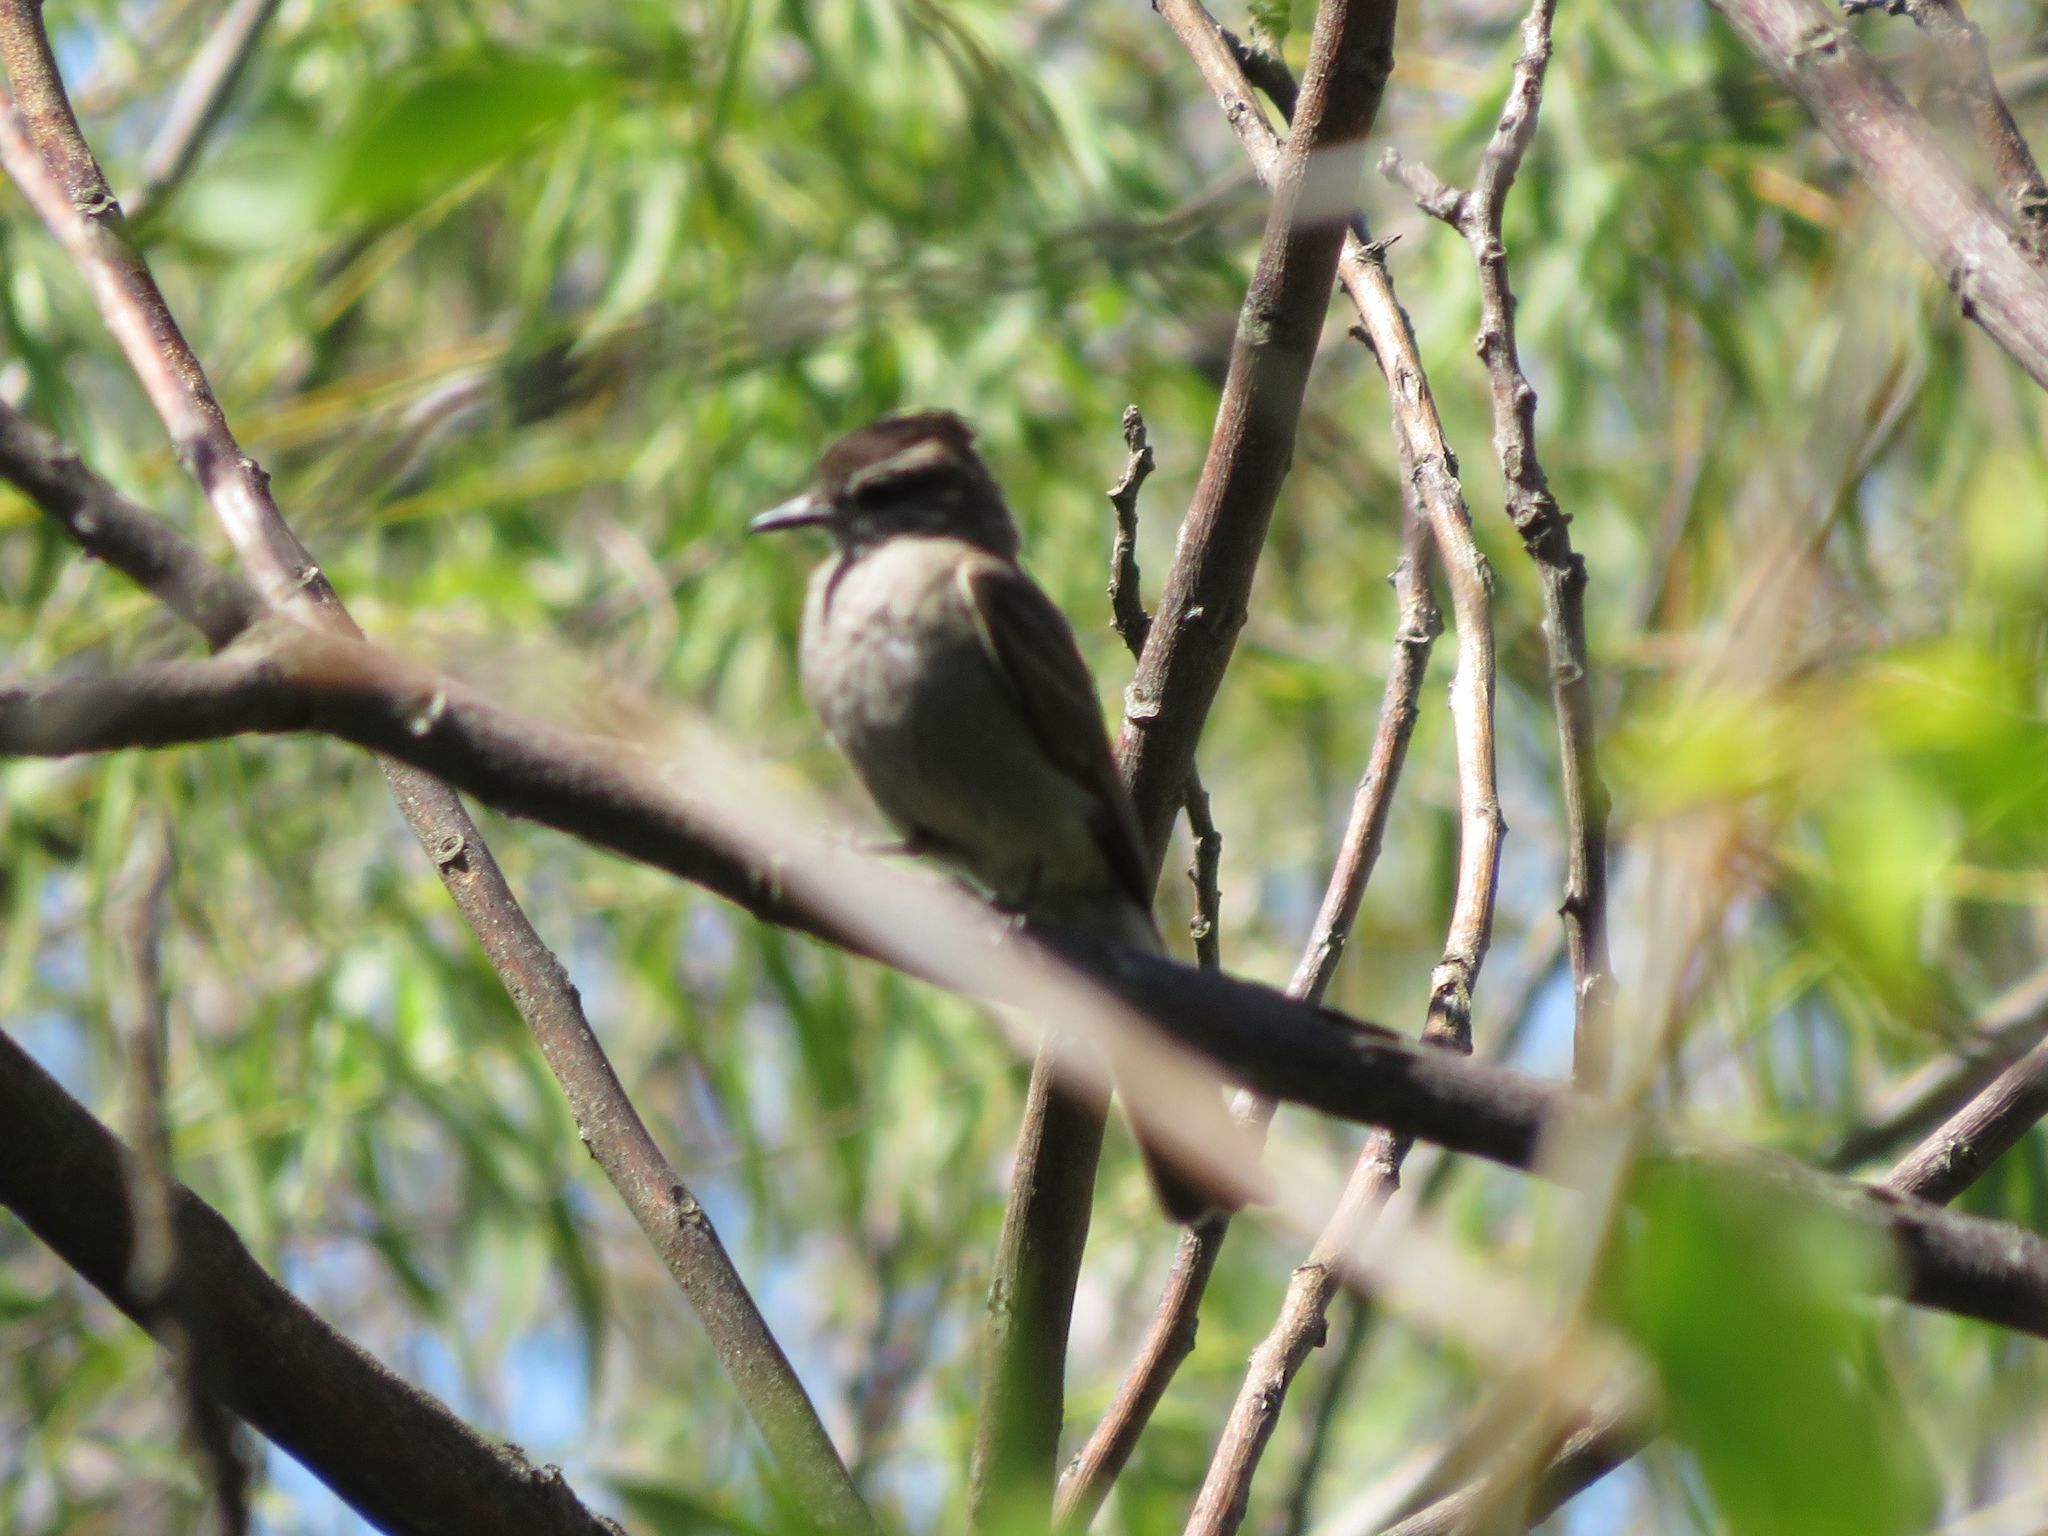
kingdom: Animalia
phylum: Chordata
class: Aves
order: Passeriformes
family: Tyrannidae
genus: Empidonomus
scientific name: Empidonomus aurantioatrocristatus
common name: Crowned slaty flycatcher
